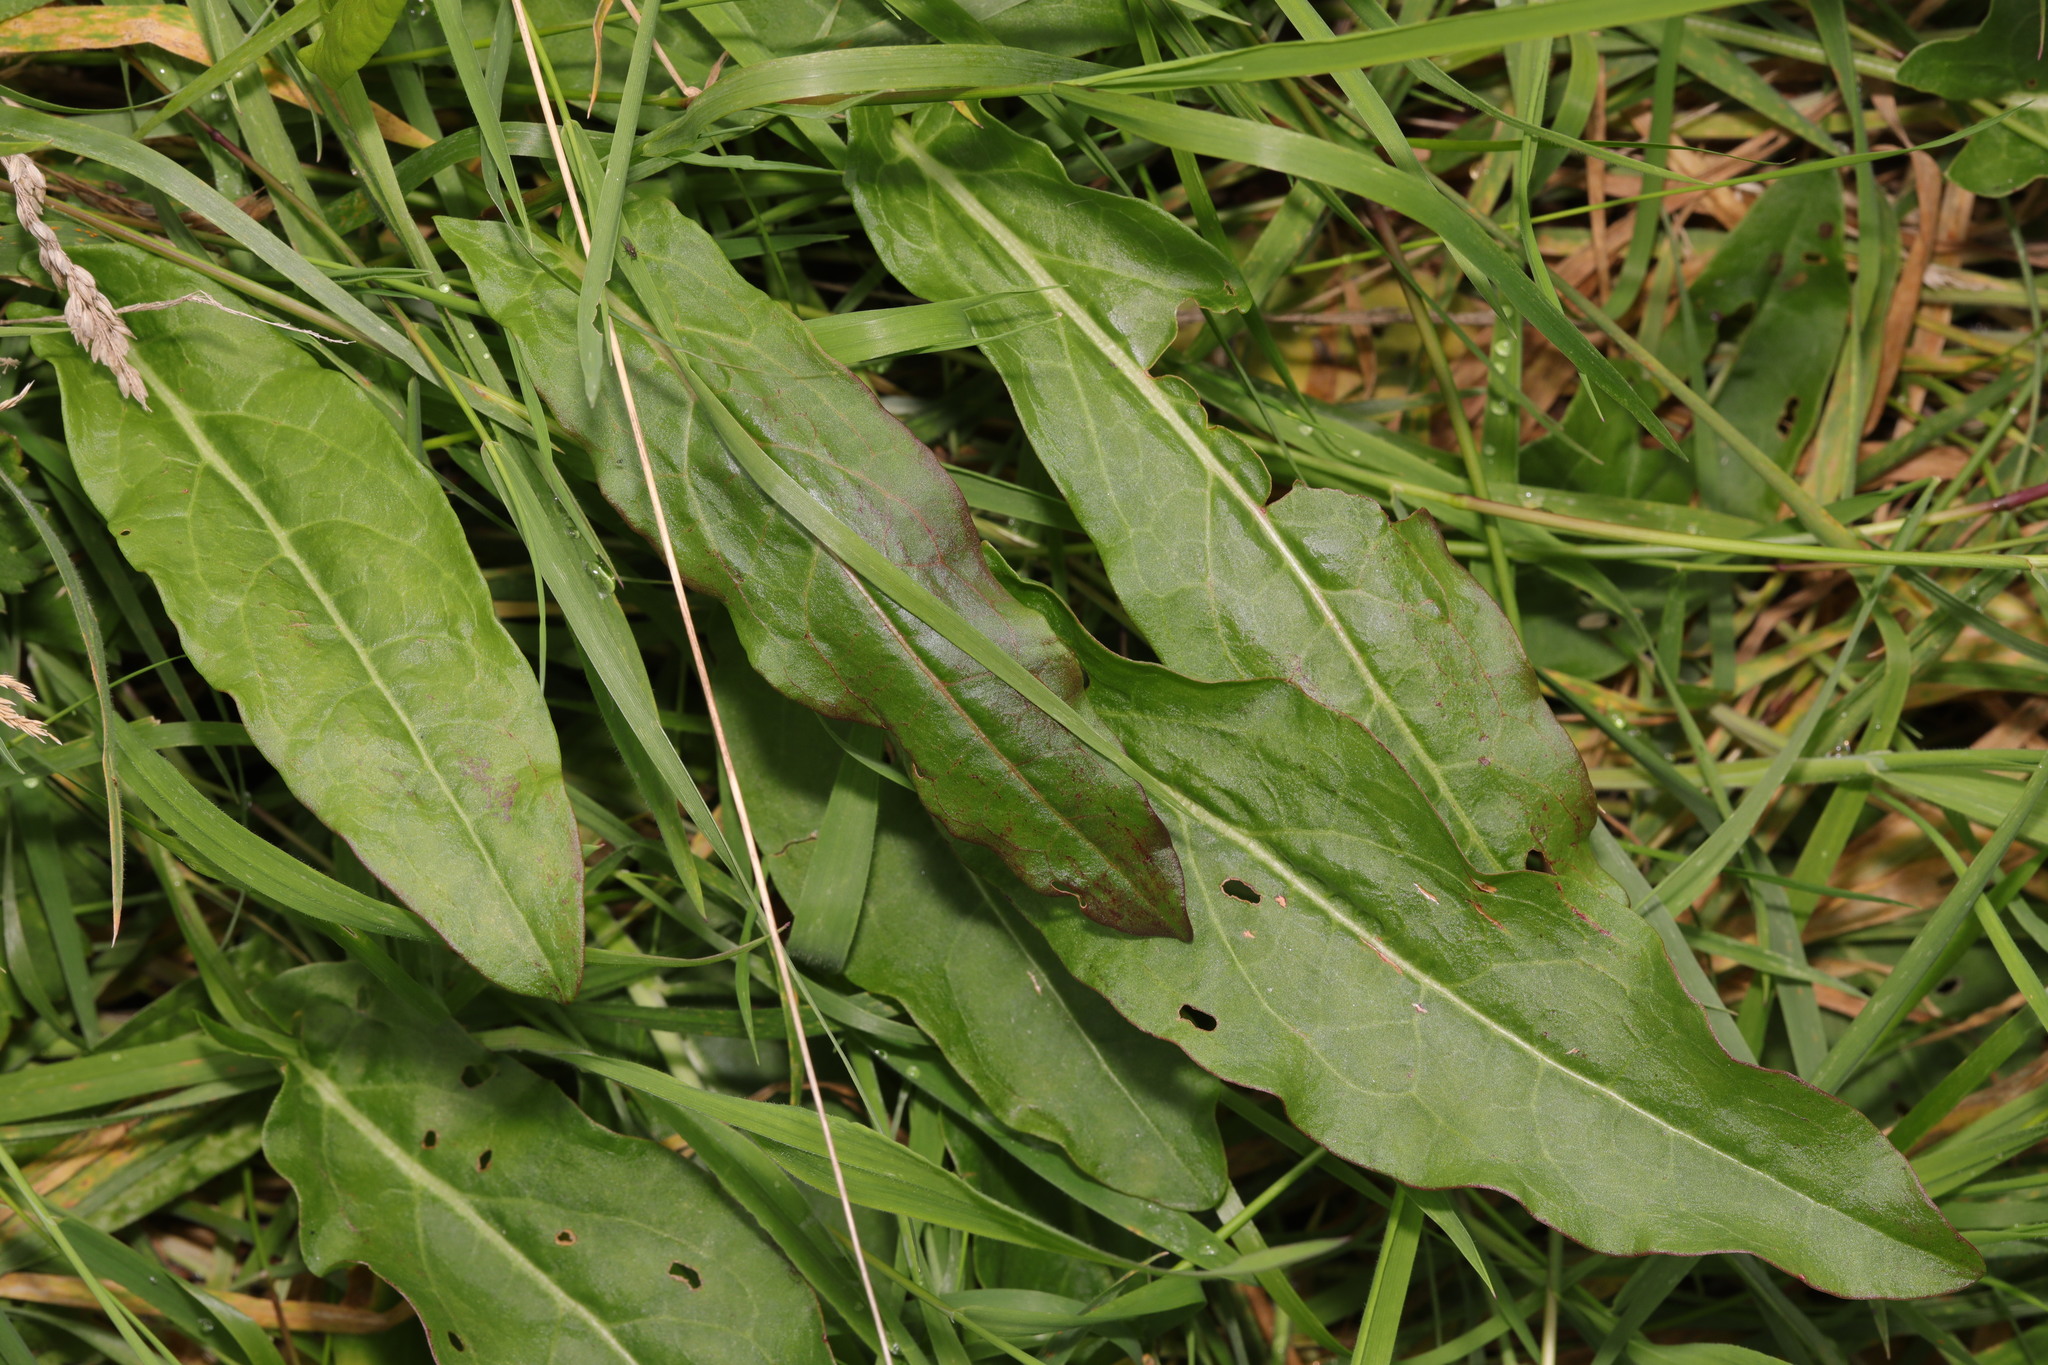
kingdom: Plantae
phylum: Tracheophyta
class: Magnoliopsida
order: Caryophyllales
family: Polygonaceae
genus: Rumex
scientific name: Rumex acetosa
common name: Garden sorrel
